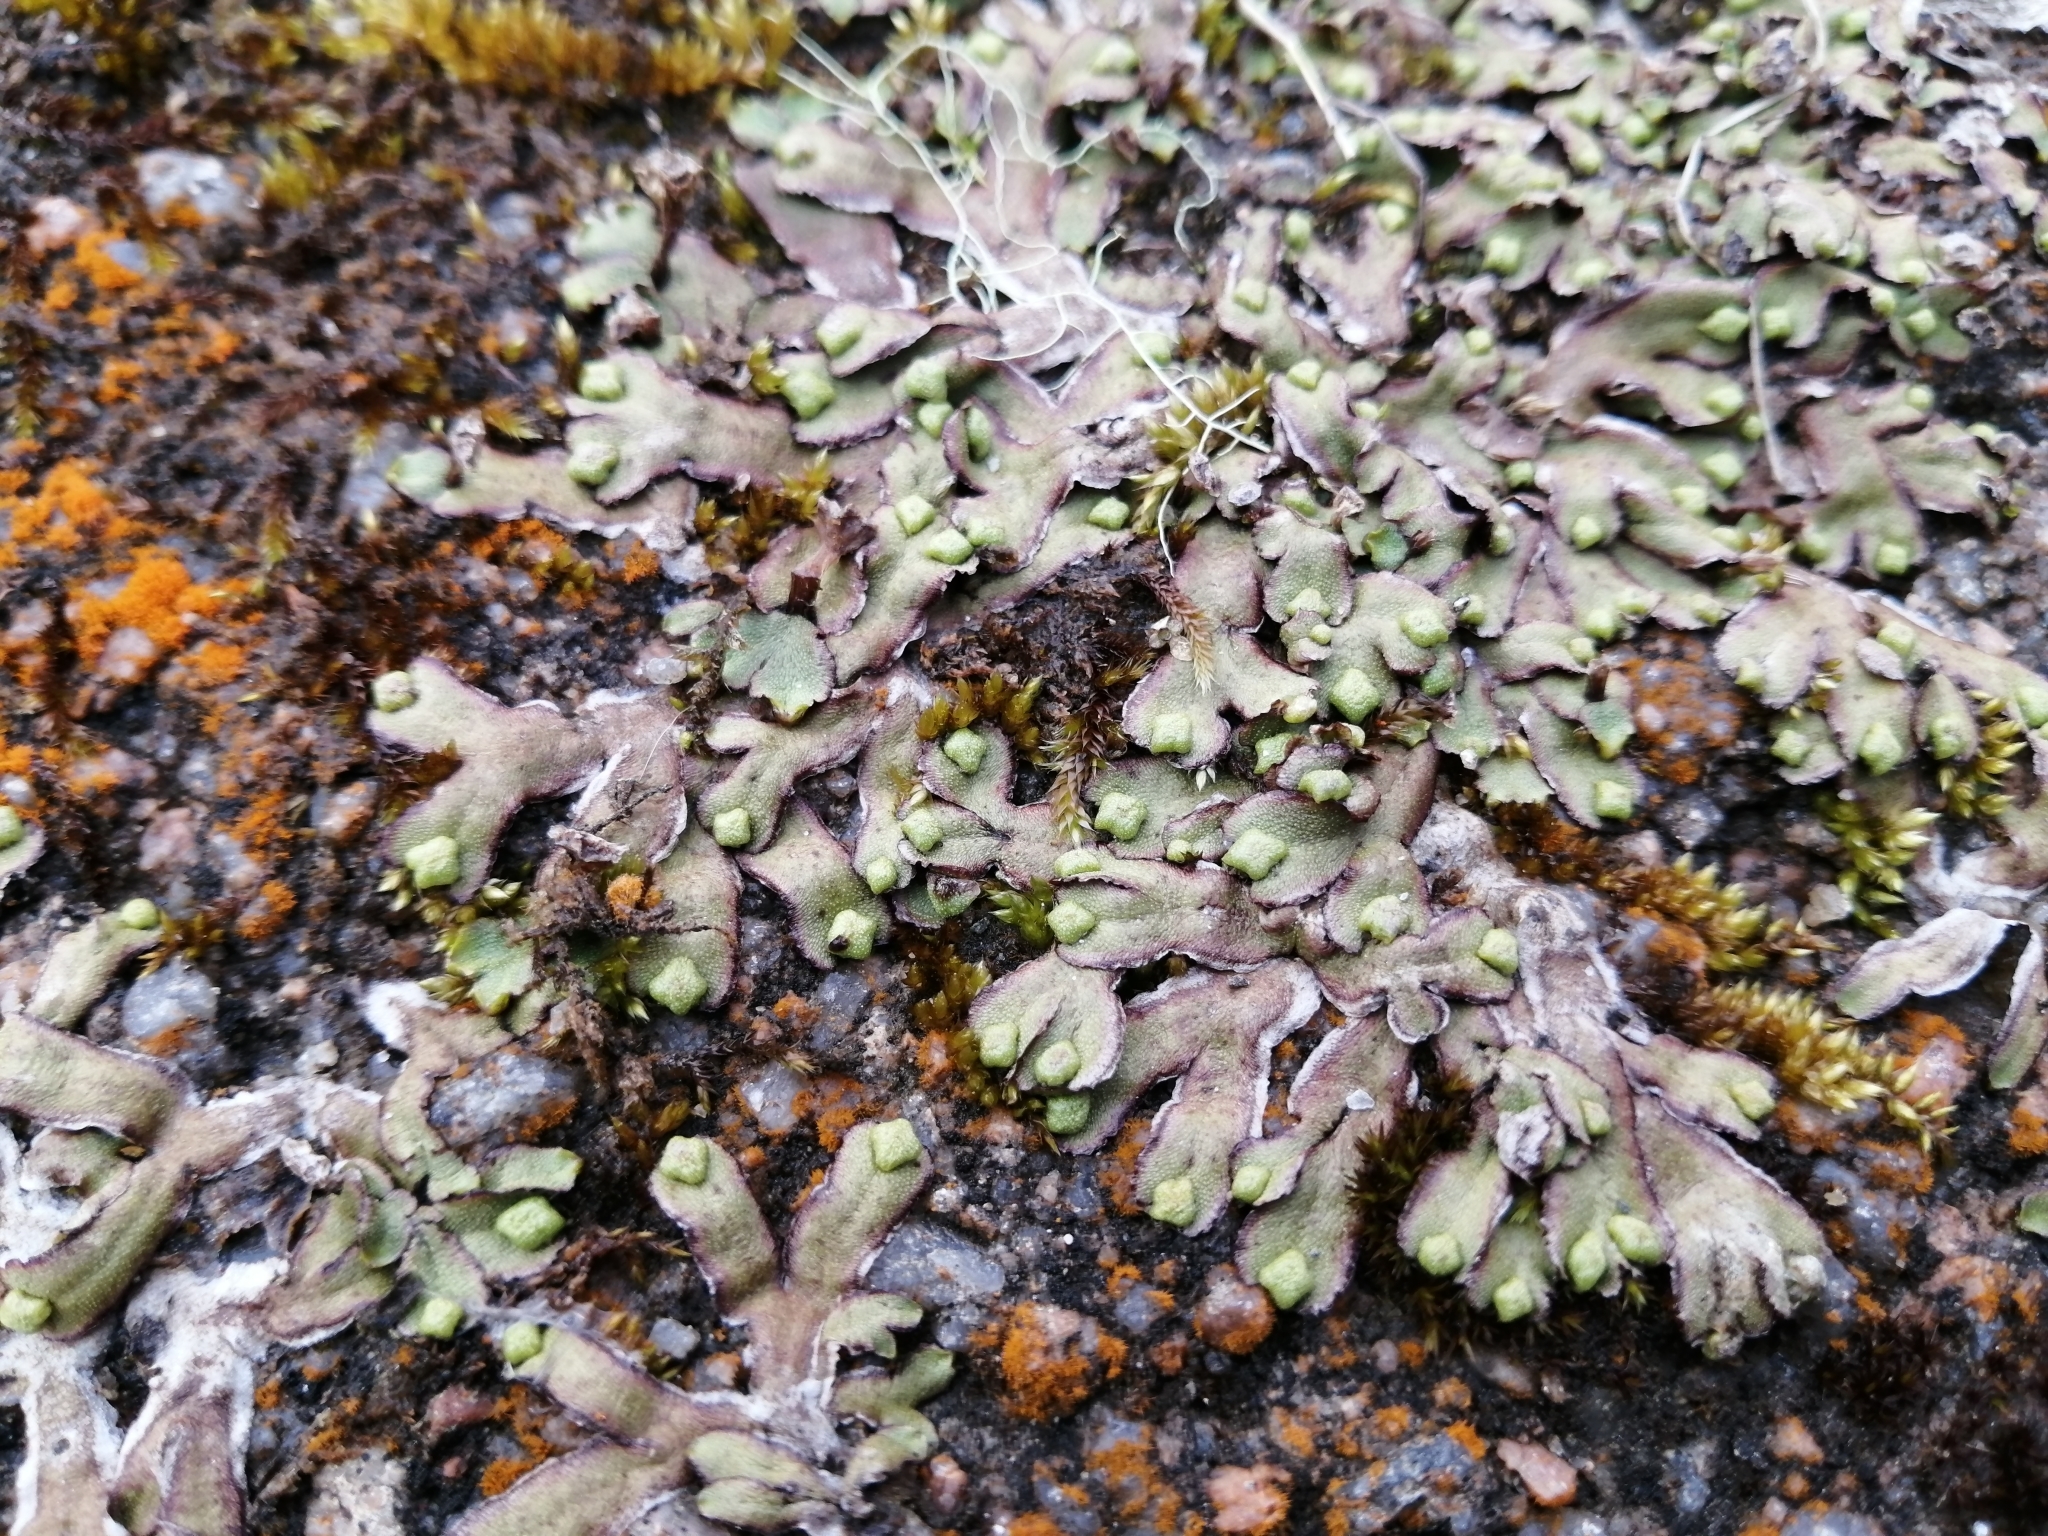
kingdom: Plantae
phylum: Marchantiophyta
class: Marchantiopsida
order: Marchantiales
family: Marchantiaceae
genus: Marchantia
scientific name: Marchantia quadrata
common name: Narrow mushroom-headed liverwort
